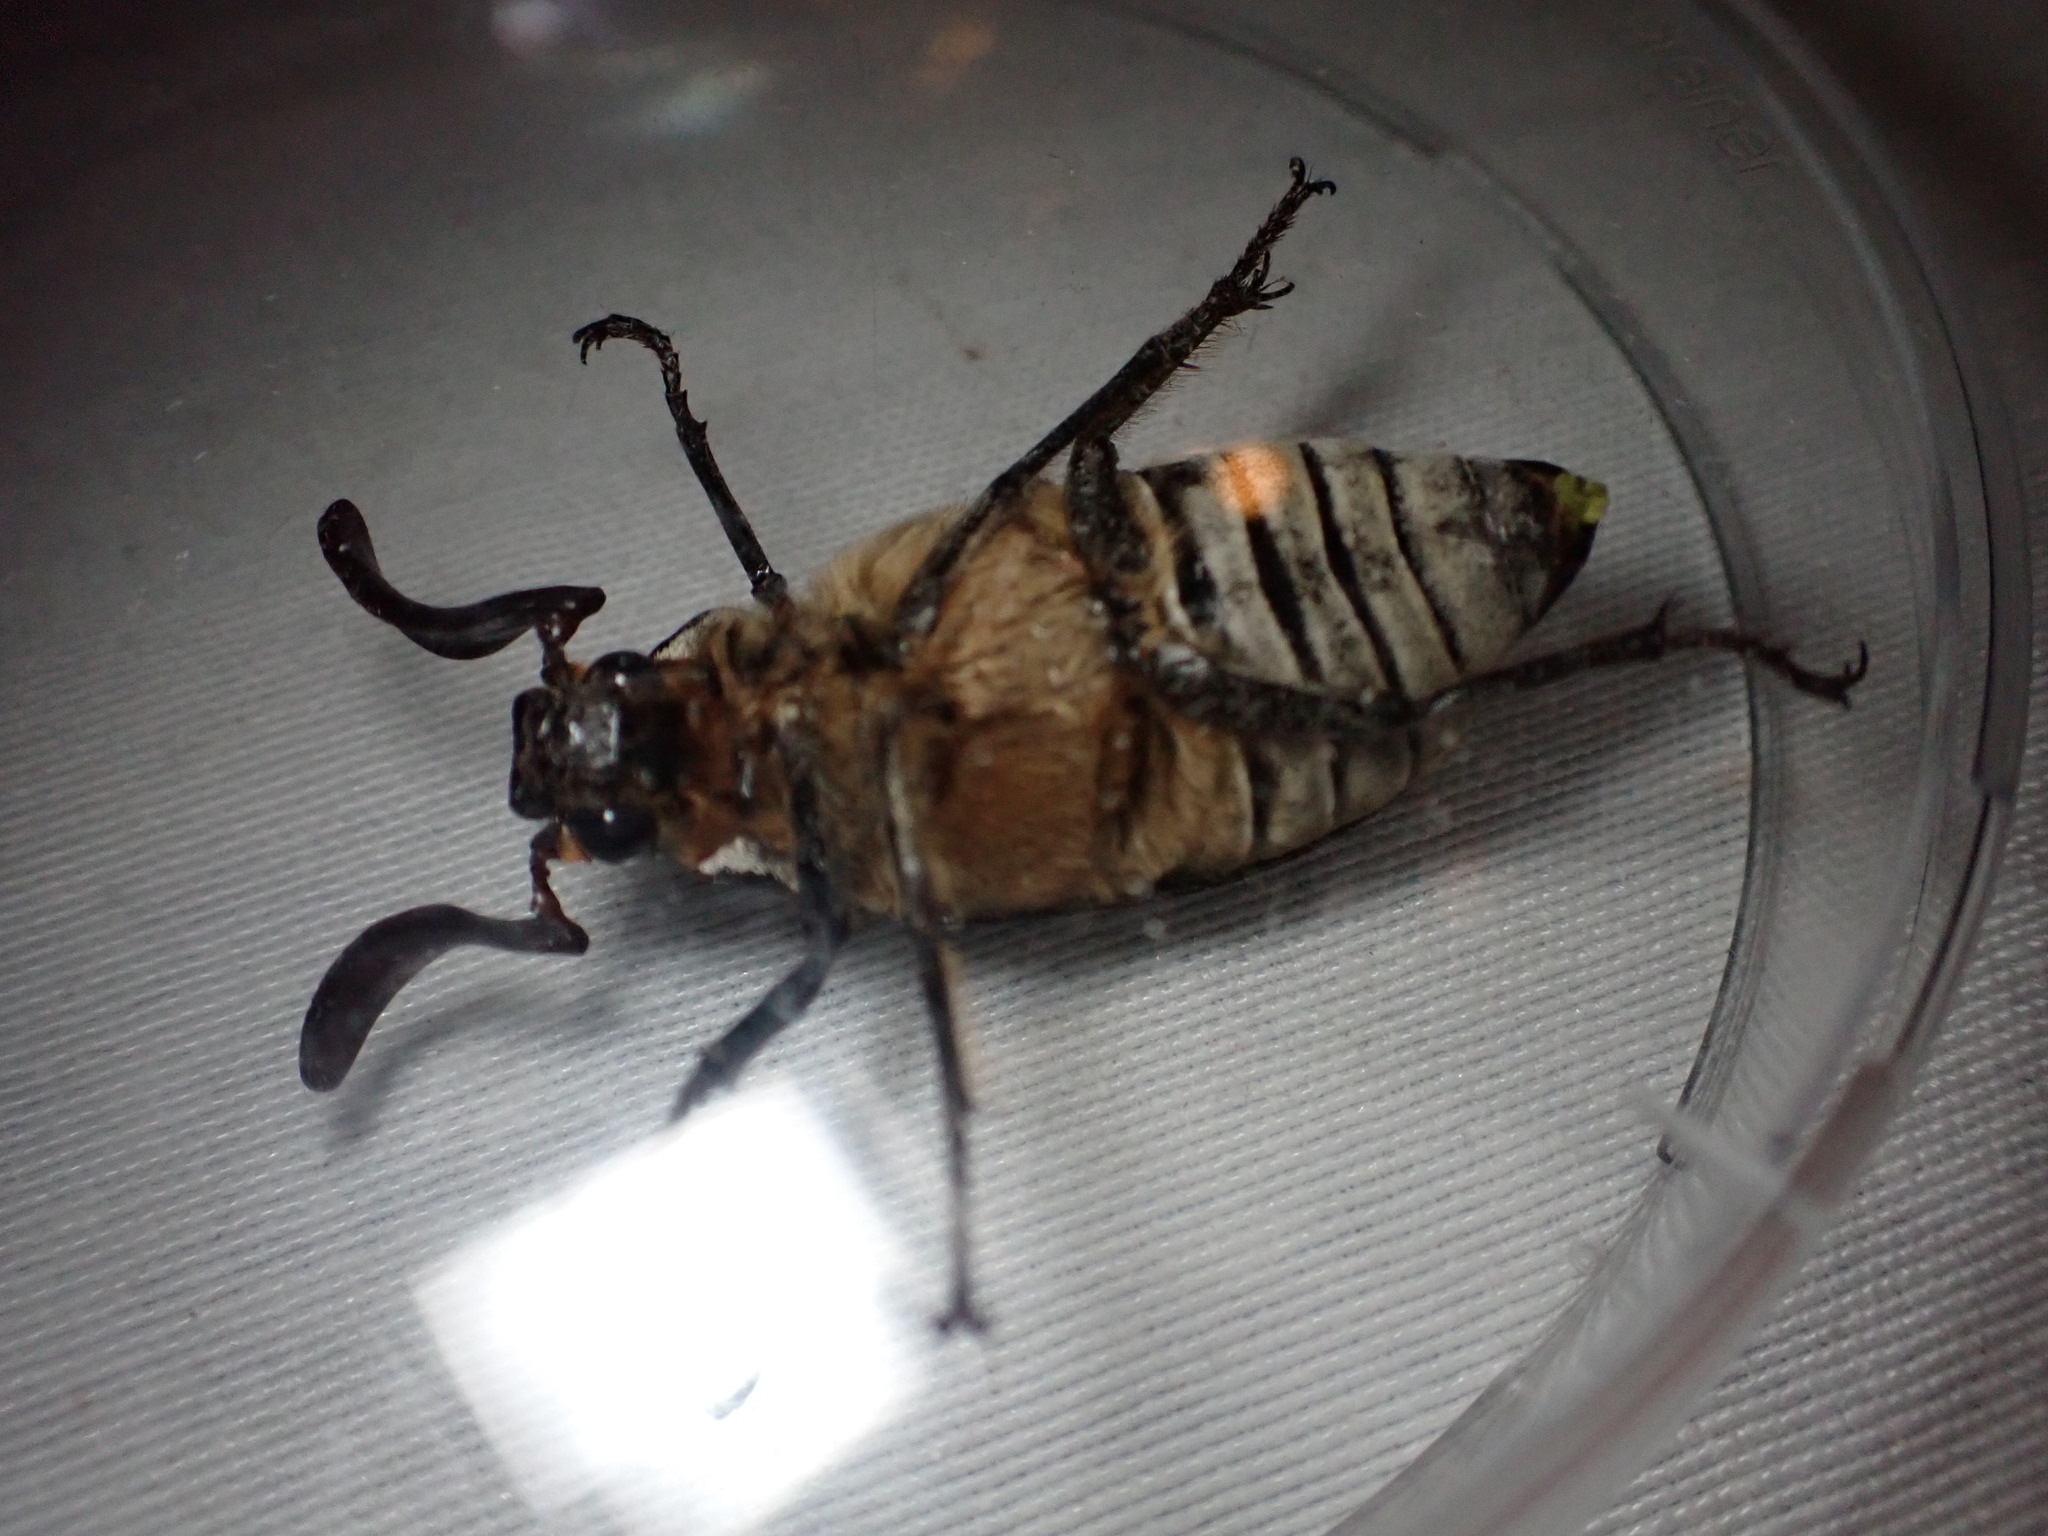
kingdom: Animalia
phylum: Arthropoda
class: Insecta
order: Coleoptera
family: Scarabaeidae
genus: Polyphylla
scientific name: Polyphylla fullo
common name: Pine chafer
